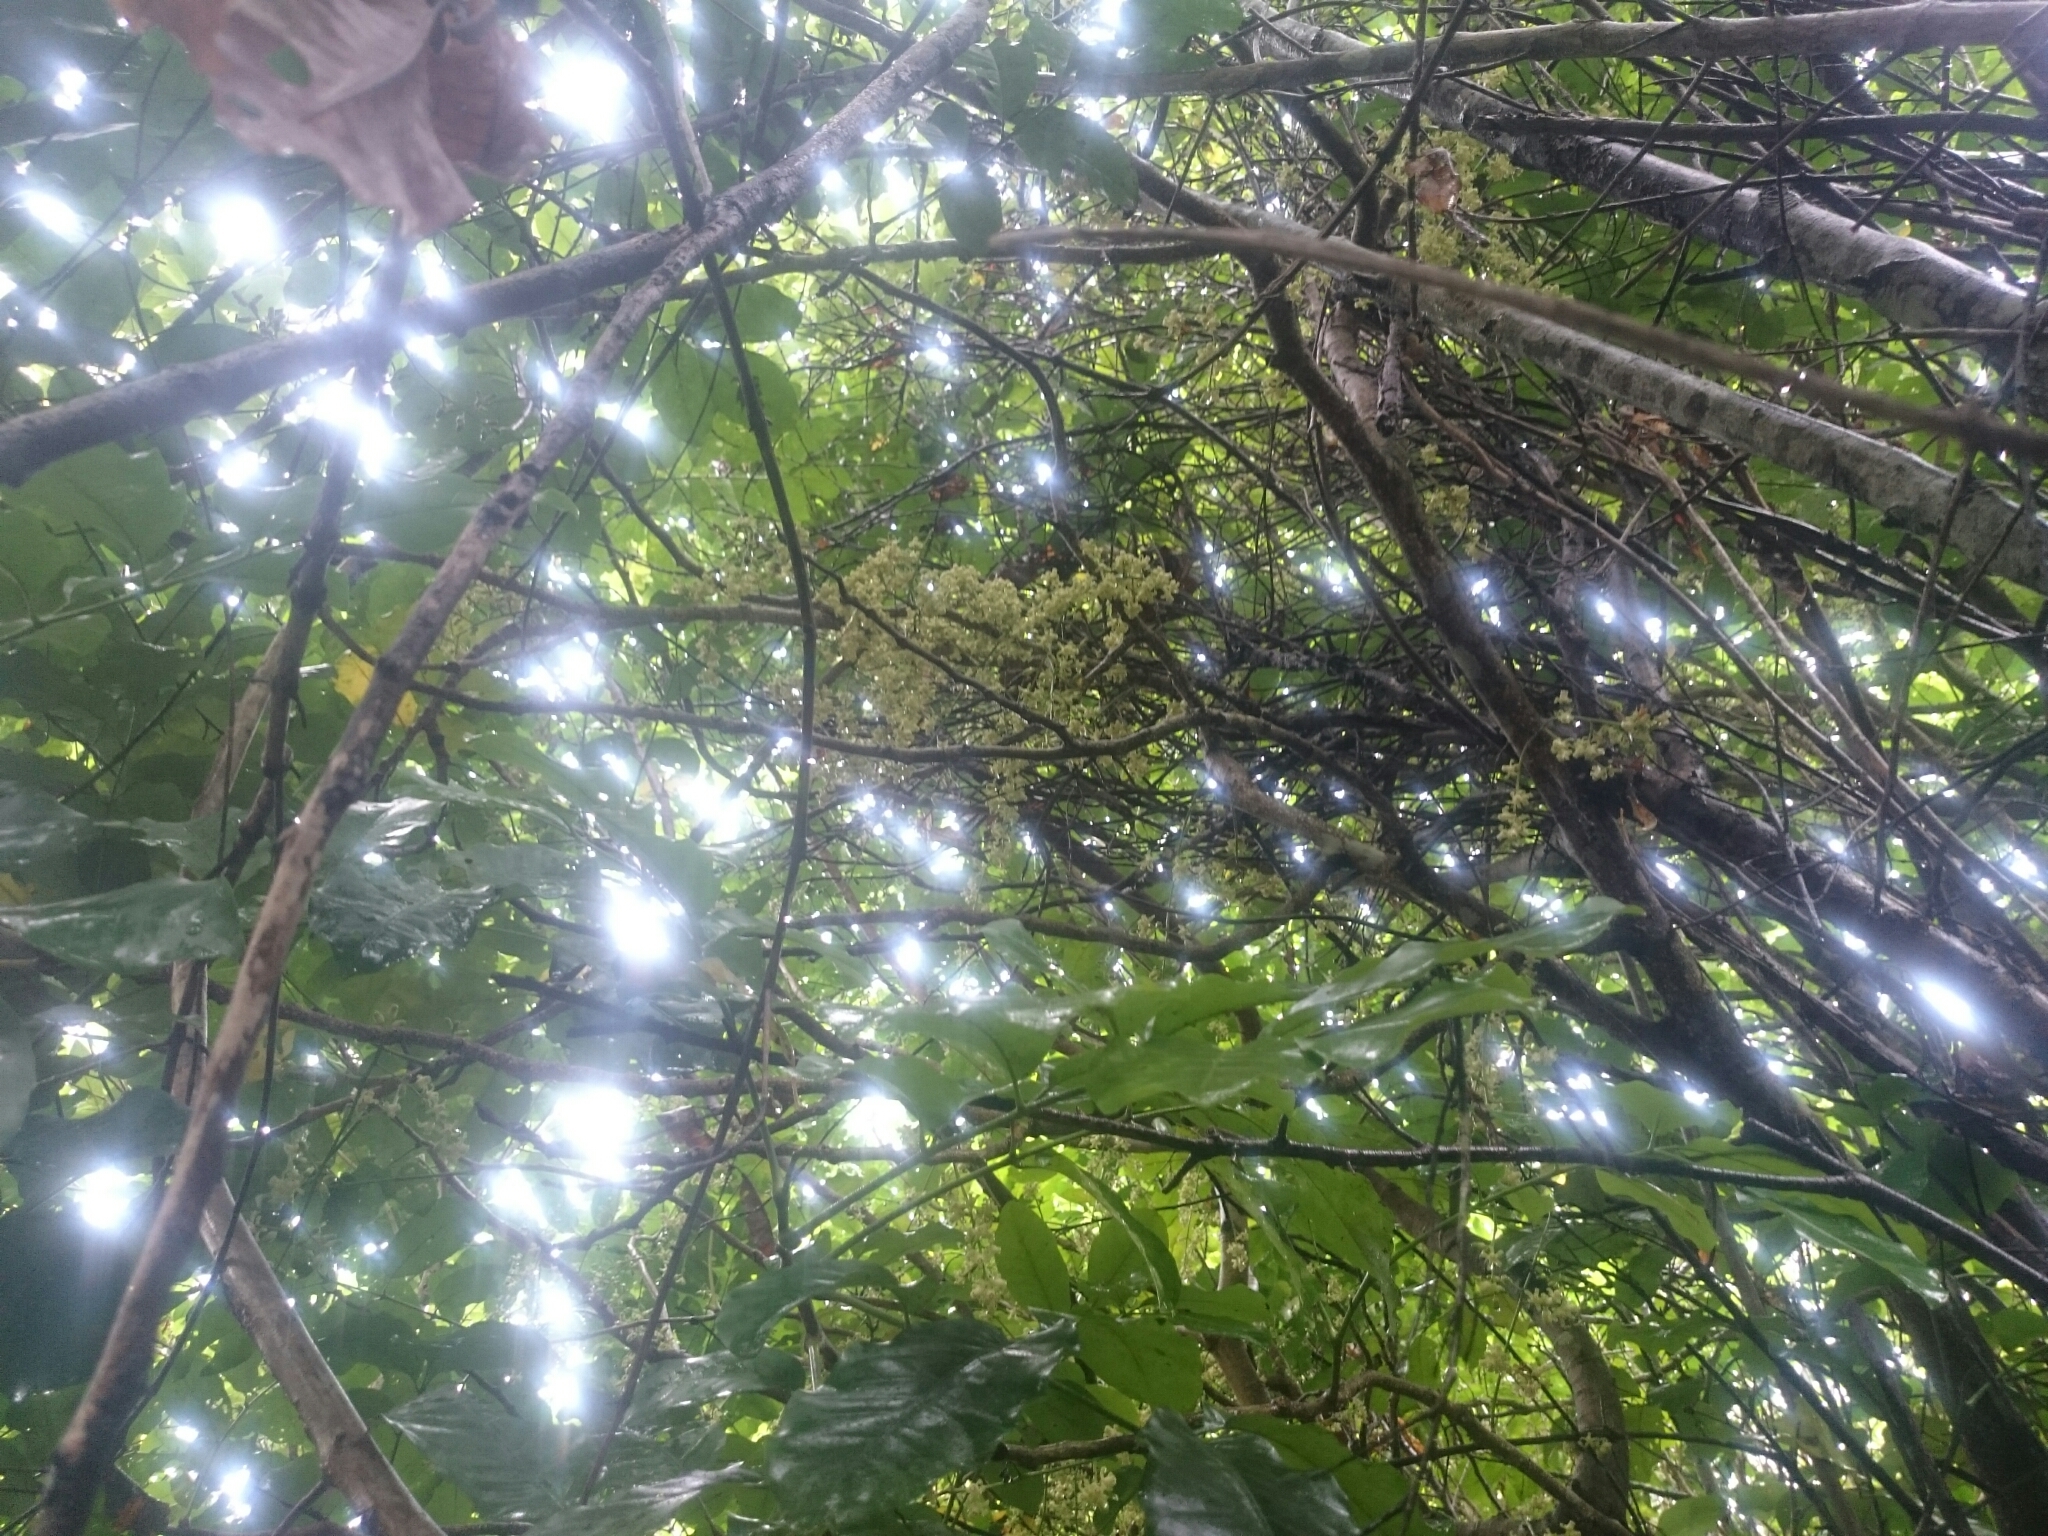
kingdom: Plantae
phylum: Tracheophyta
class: Magnoliopsida
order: Sapindales
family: Meliaceae
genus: Didymocheton
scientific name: Didymocheton spectabilis
